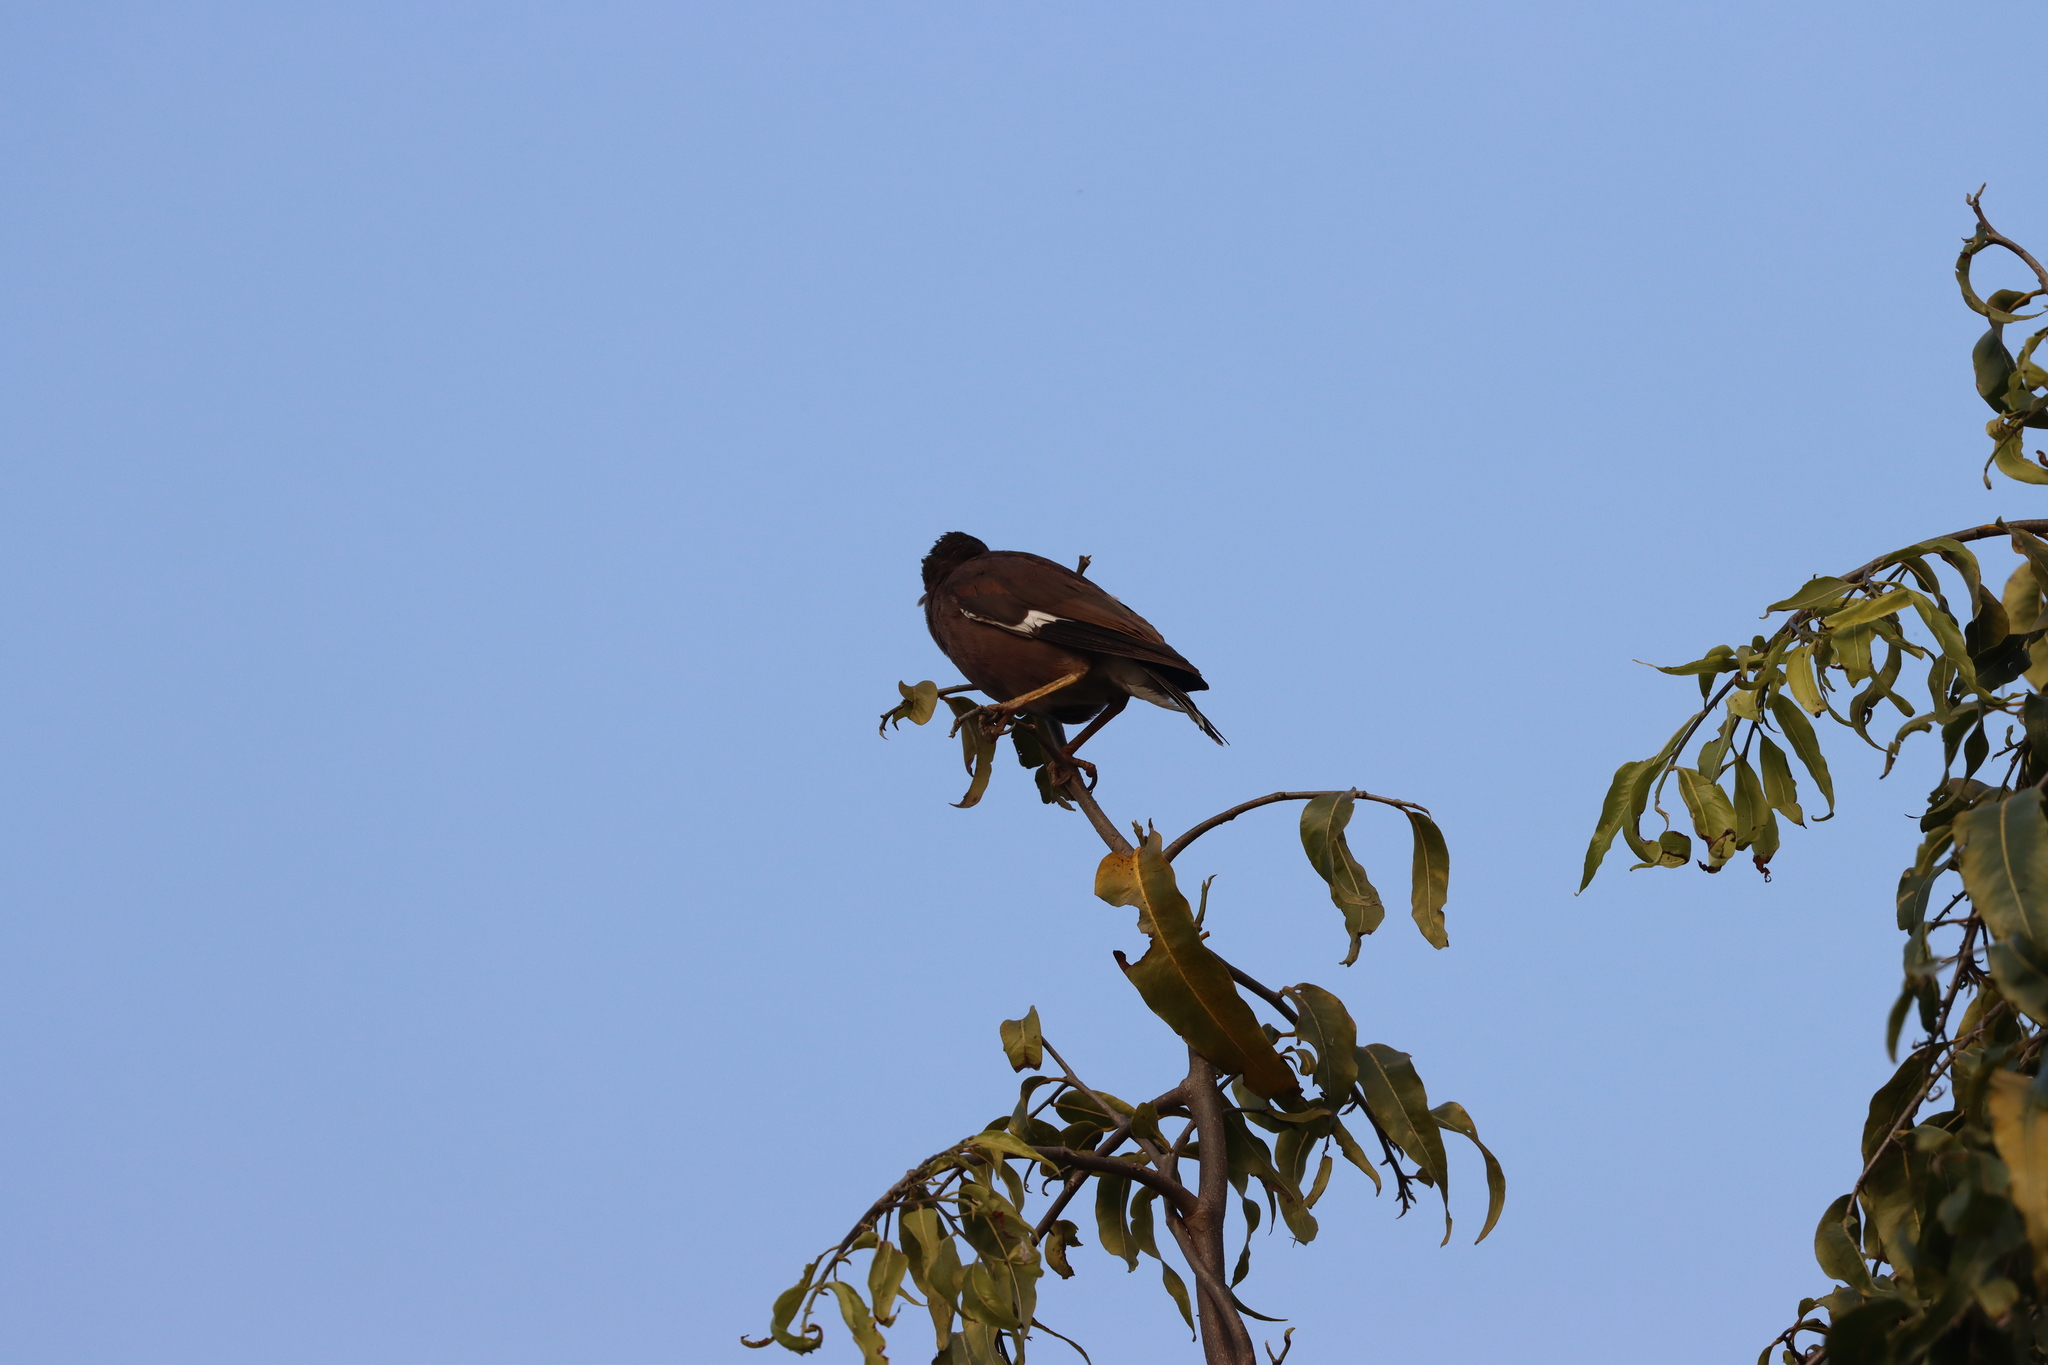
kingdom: Animalia
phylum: Chordata
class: Aves
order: Passeriformes
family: Sturnidae
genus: Acridotheres
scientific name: Acridotheres tristis
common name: Common myna
